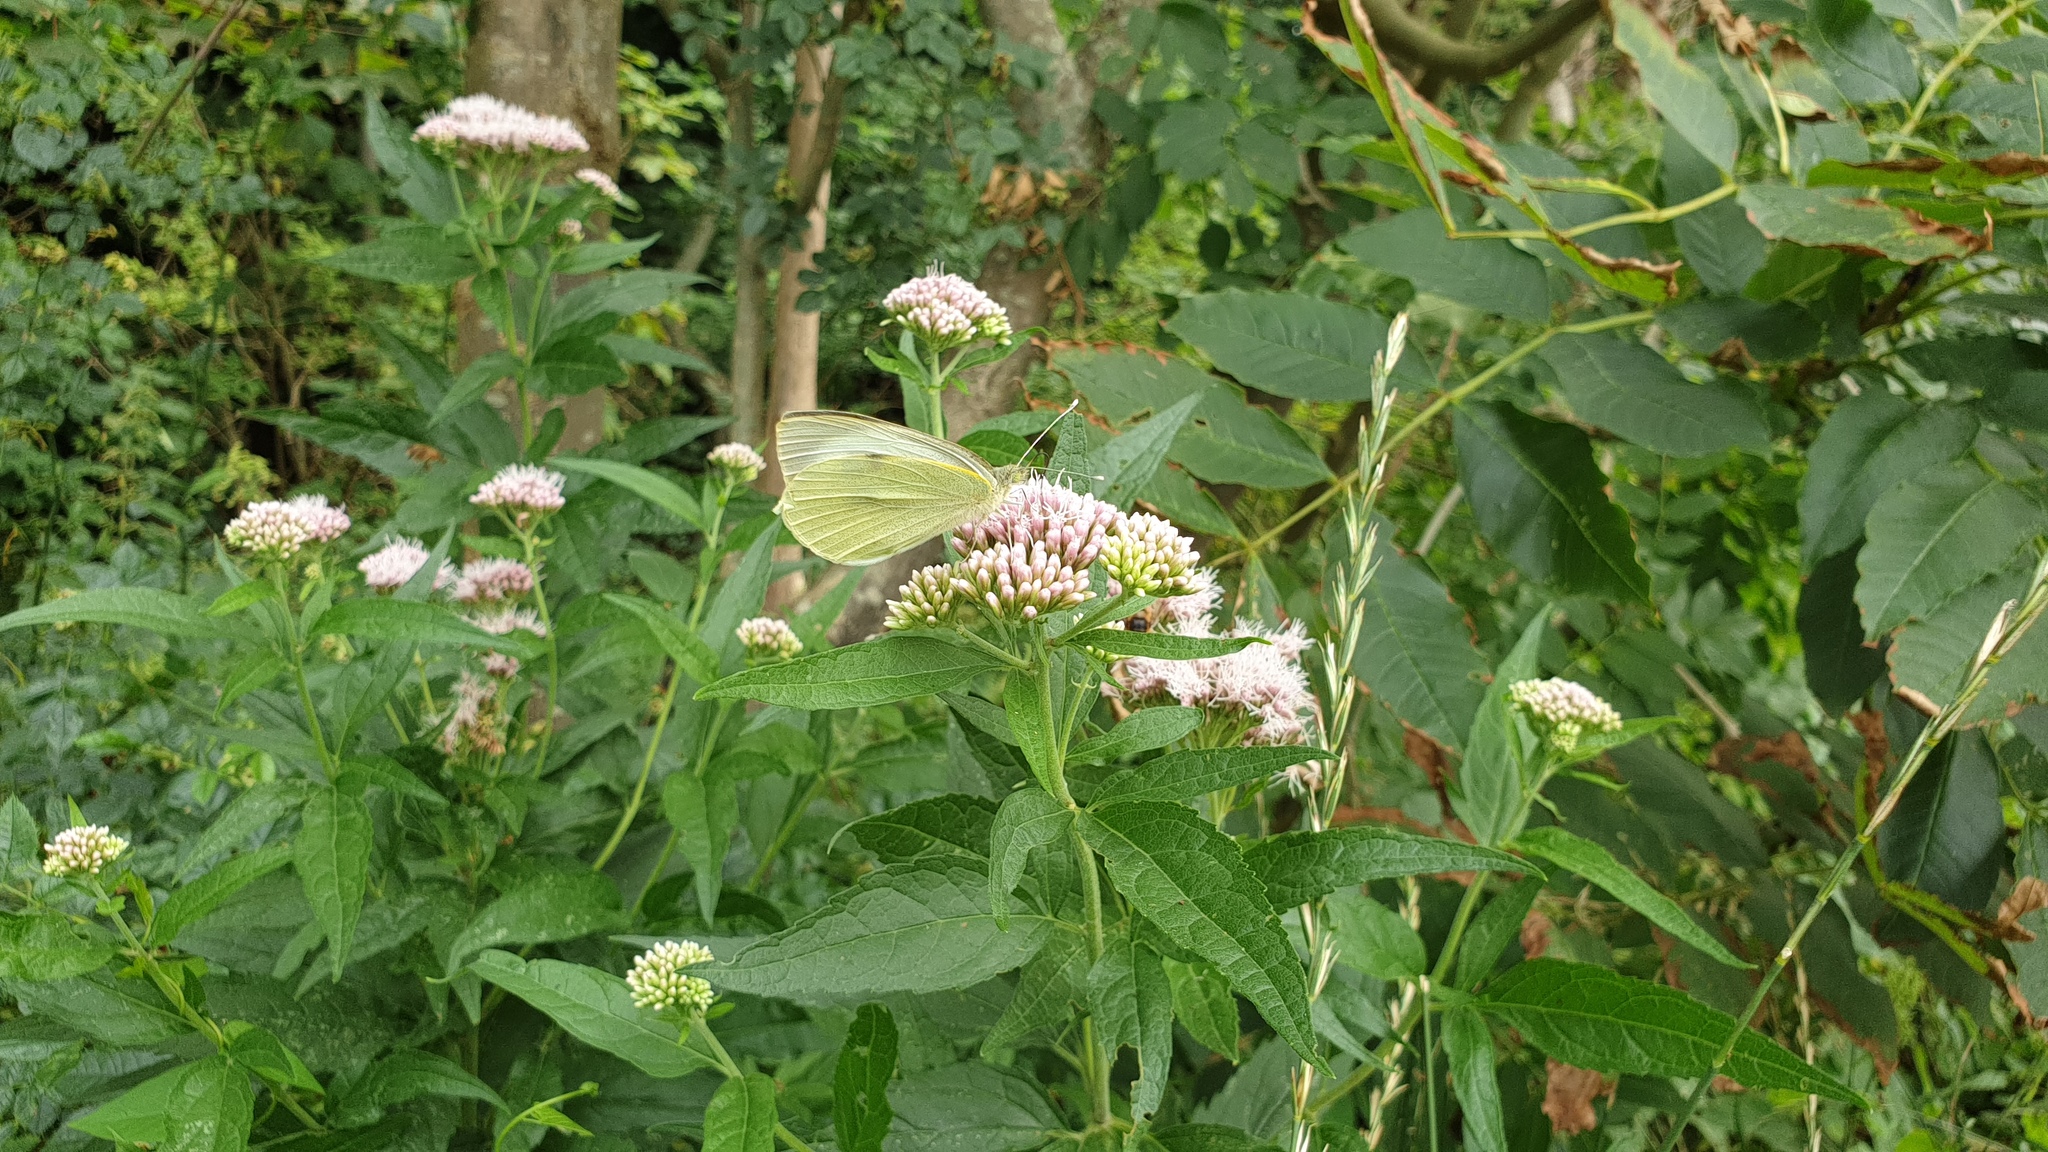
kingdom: Animalia
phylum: Arthropoda
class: Insecta
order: Lepidoptera
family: Pieridae
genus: Pieris
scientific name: Pieris brassicae
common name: Large white
